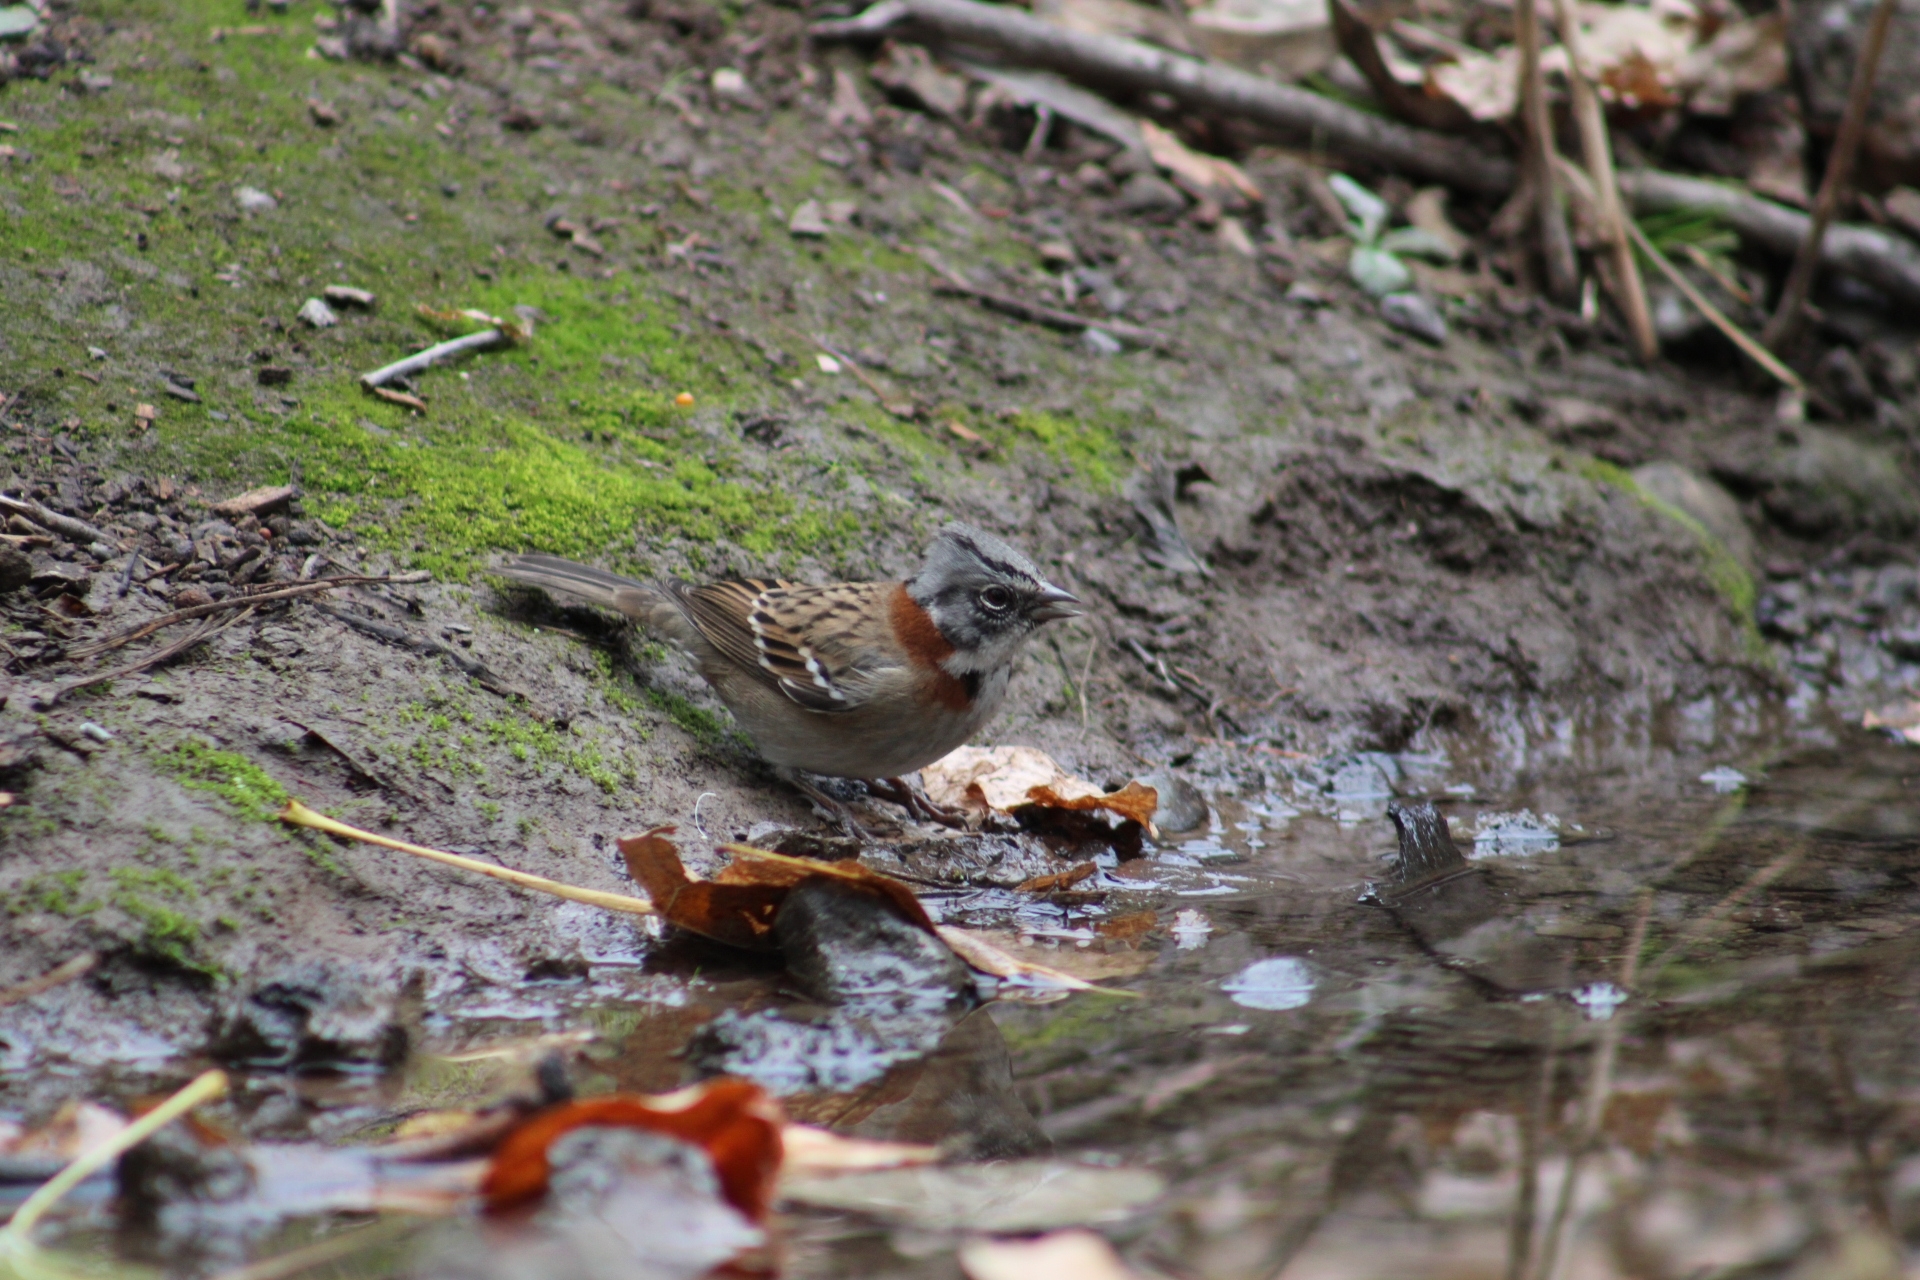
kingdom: Animalia
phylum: Chordata
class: Aves
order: Passeriformes
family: Passerellidae
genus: Zonotrichia
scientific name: Zonotrichia capensis
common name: Rufous-collared sparrow
